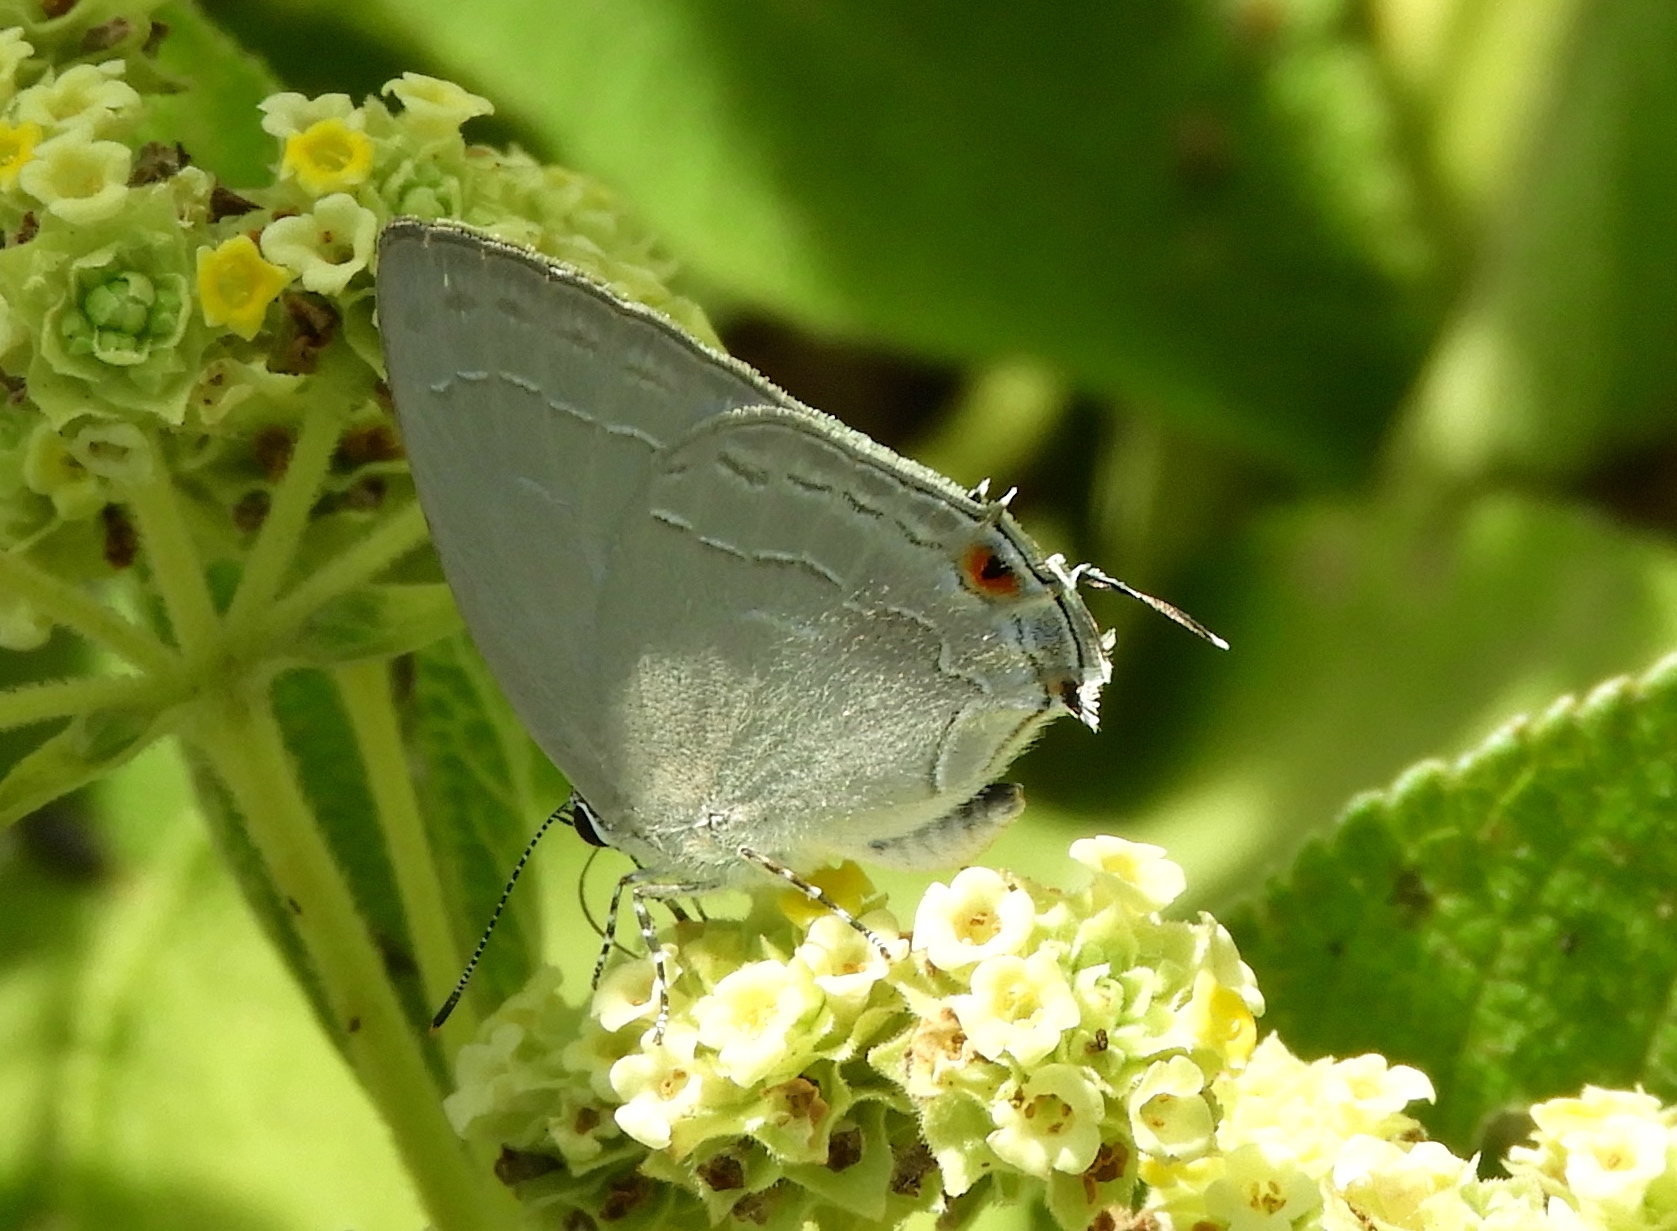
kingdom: Animalia
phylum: Arthropoda
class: Insecta
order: Lepidoptera
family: Lycaenidae
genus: Strephonota
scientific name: Strephonota tephraeus
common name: Pearly-gray hairstreak
